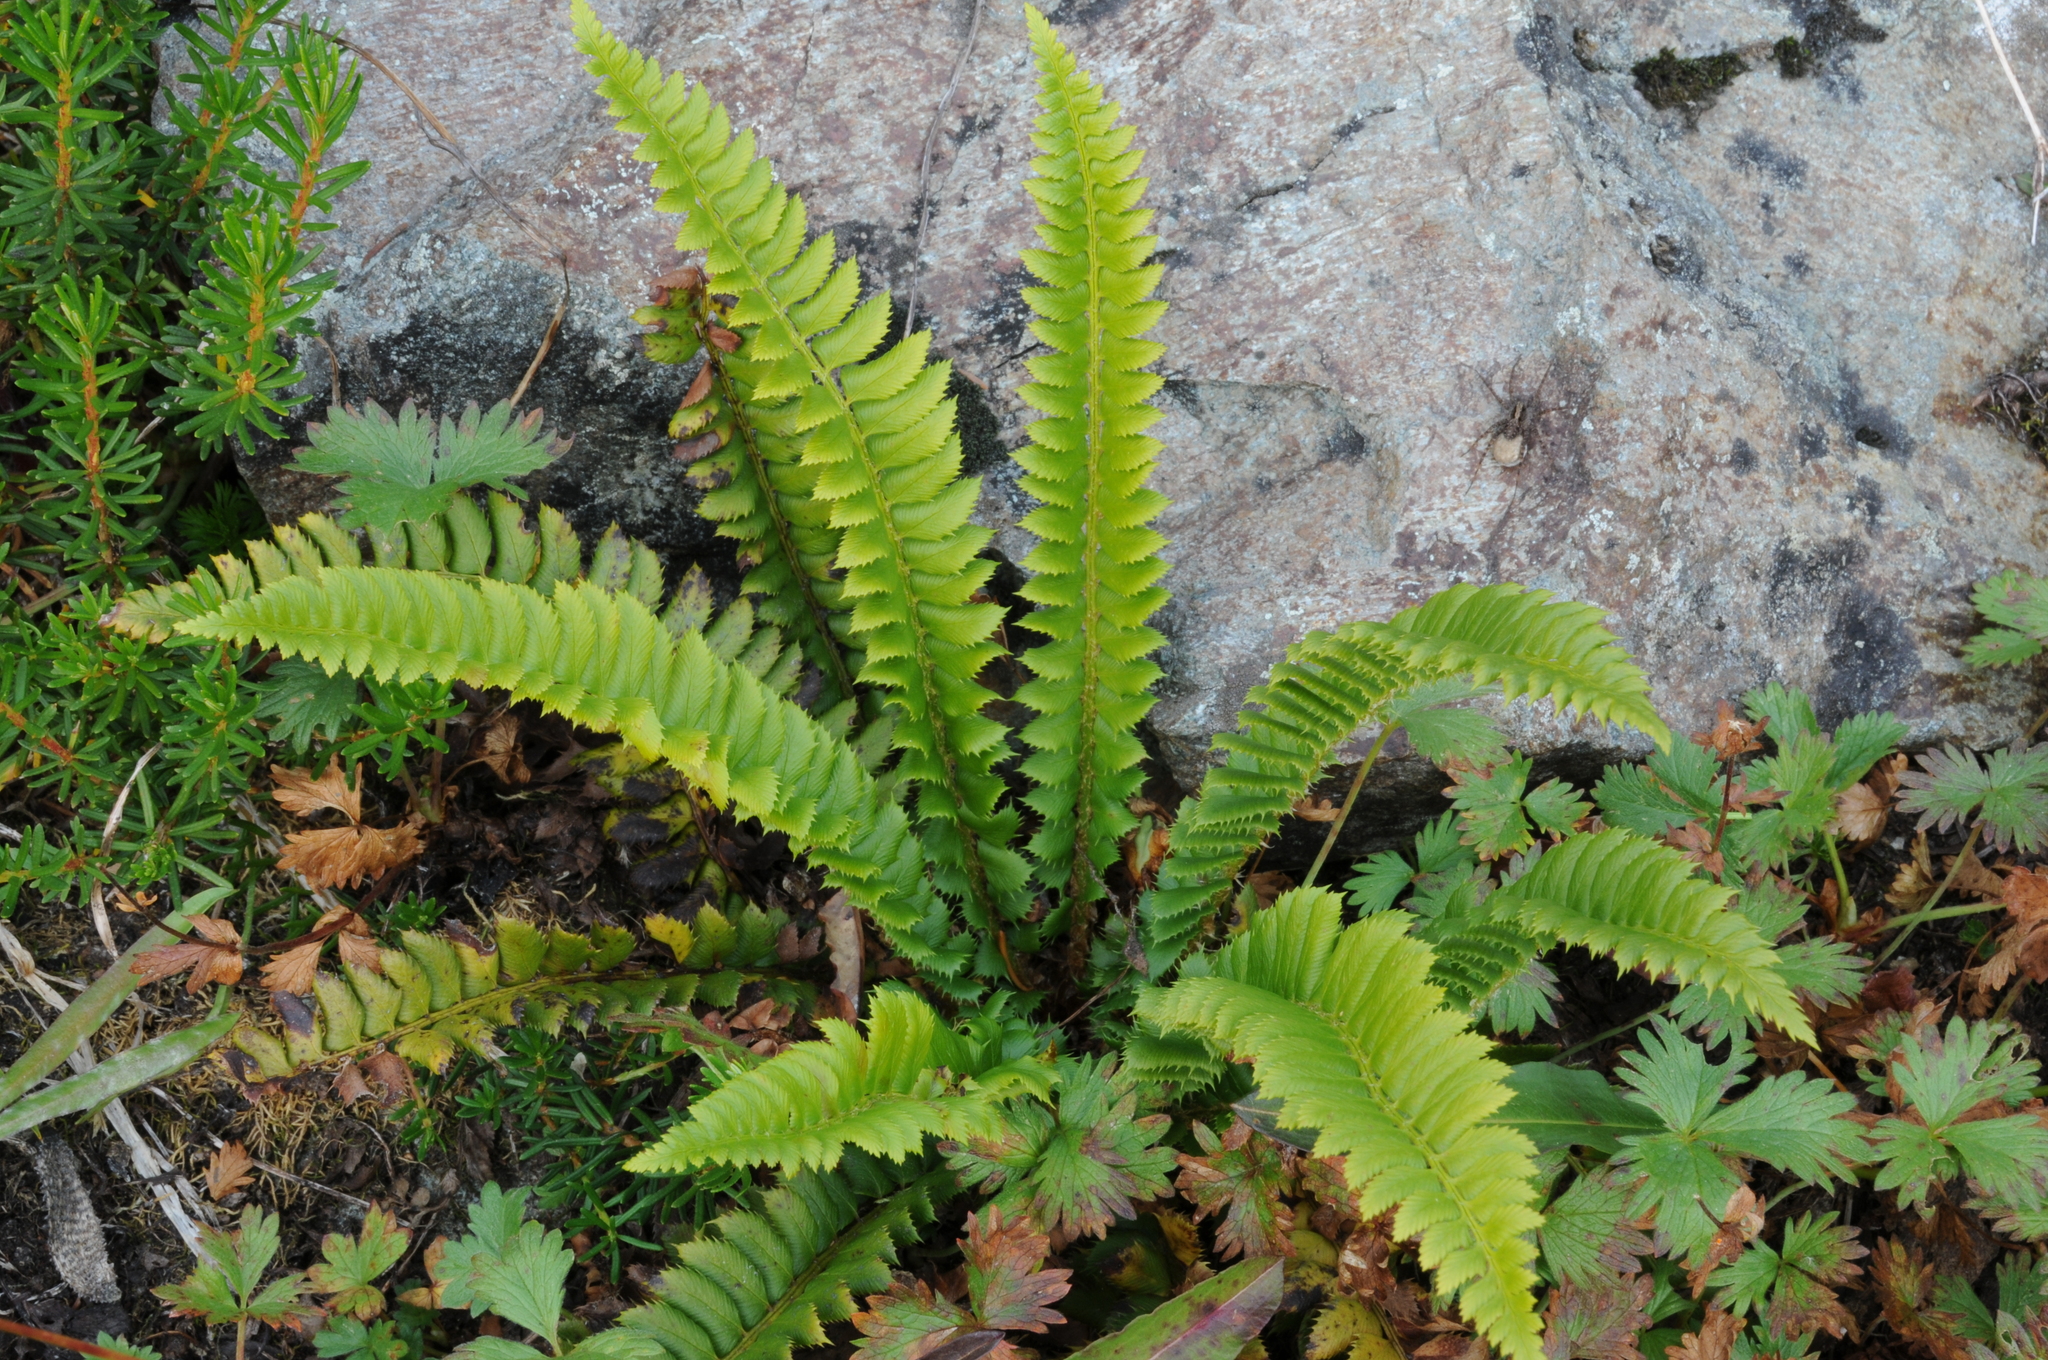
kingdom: Plantae
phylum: Tracheophyta
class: Polypodiopsida
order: Polypodiales
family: Dryopteridaceae
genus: Polystichum
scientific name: Polystichum lonchitis
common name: Holly fern
